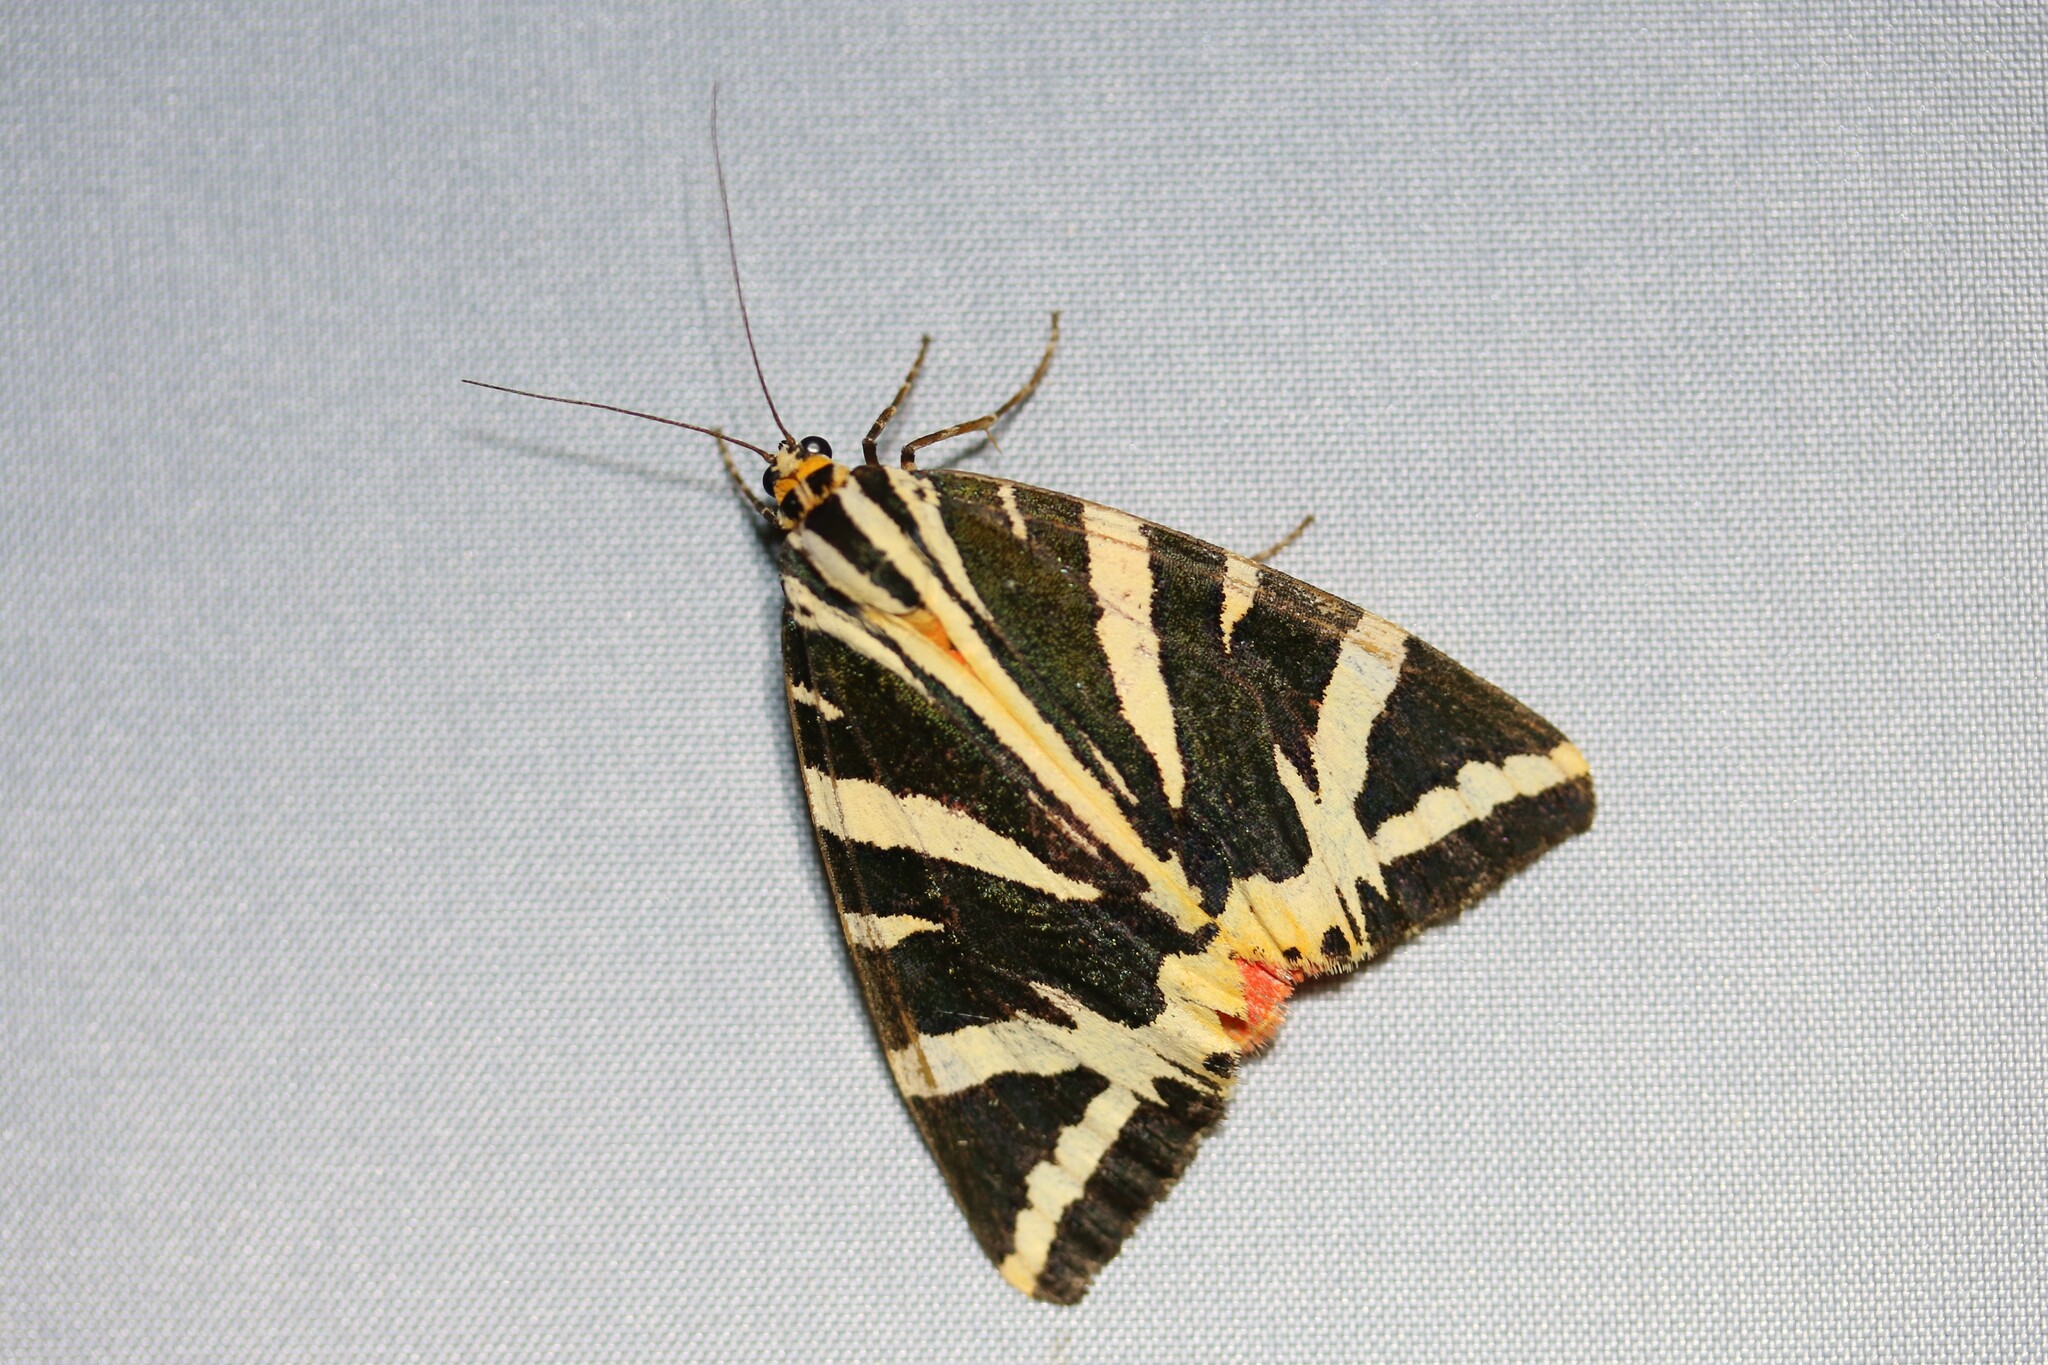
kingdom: Animalia
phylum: Arthropoda
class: Insecta
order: Lepidoptera
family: Erebidae
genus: Euplagia
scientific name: Euplagia quadripunctaria
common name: Jersey tiger
